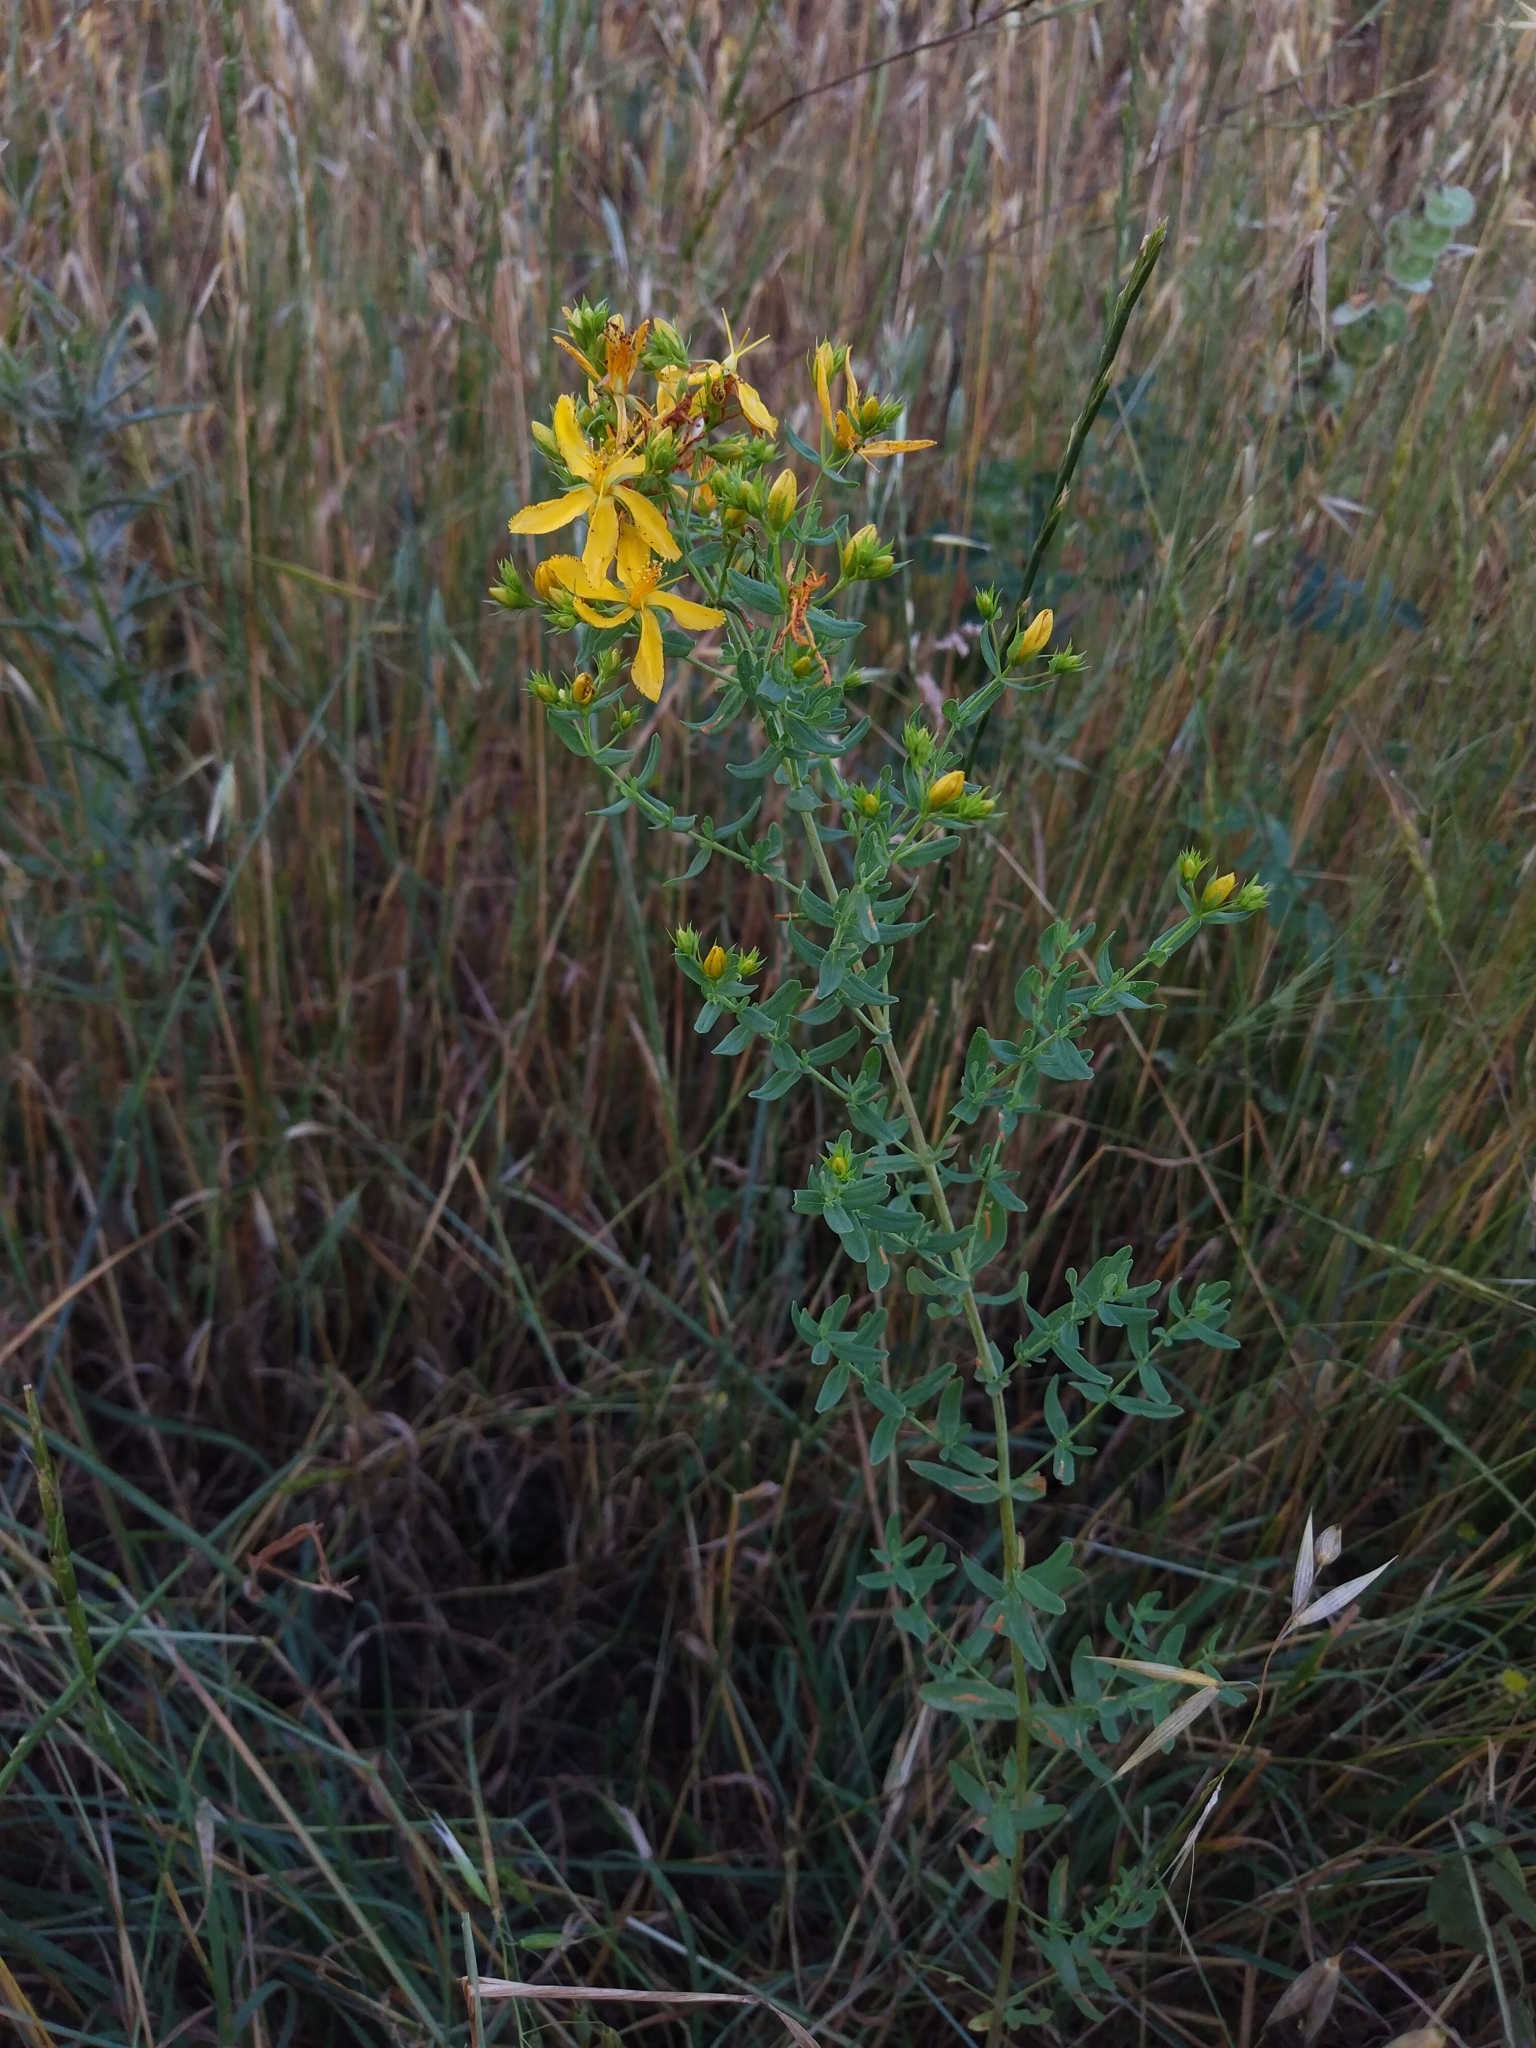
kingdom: Plantae
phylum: Tracheophyta
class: Magnoliopsida
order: Malpighiales
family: Hypericaceae
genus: Hypericum
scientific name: Hypericum perforatum
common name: Common st. johnswort
